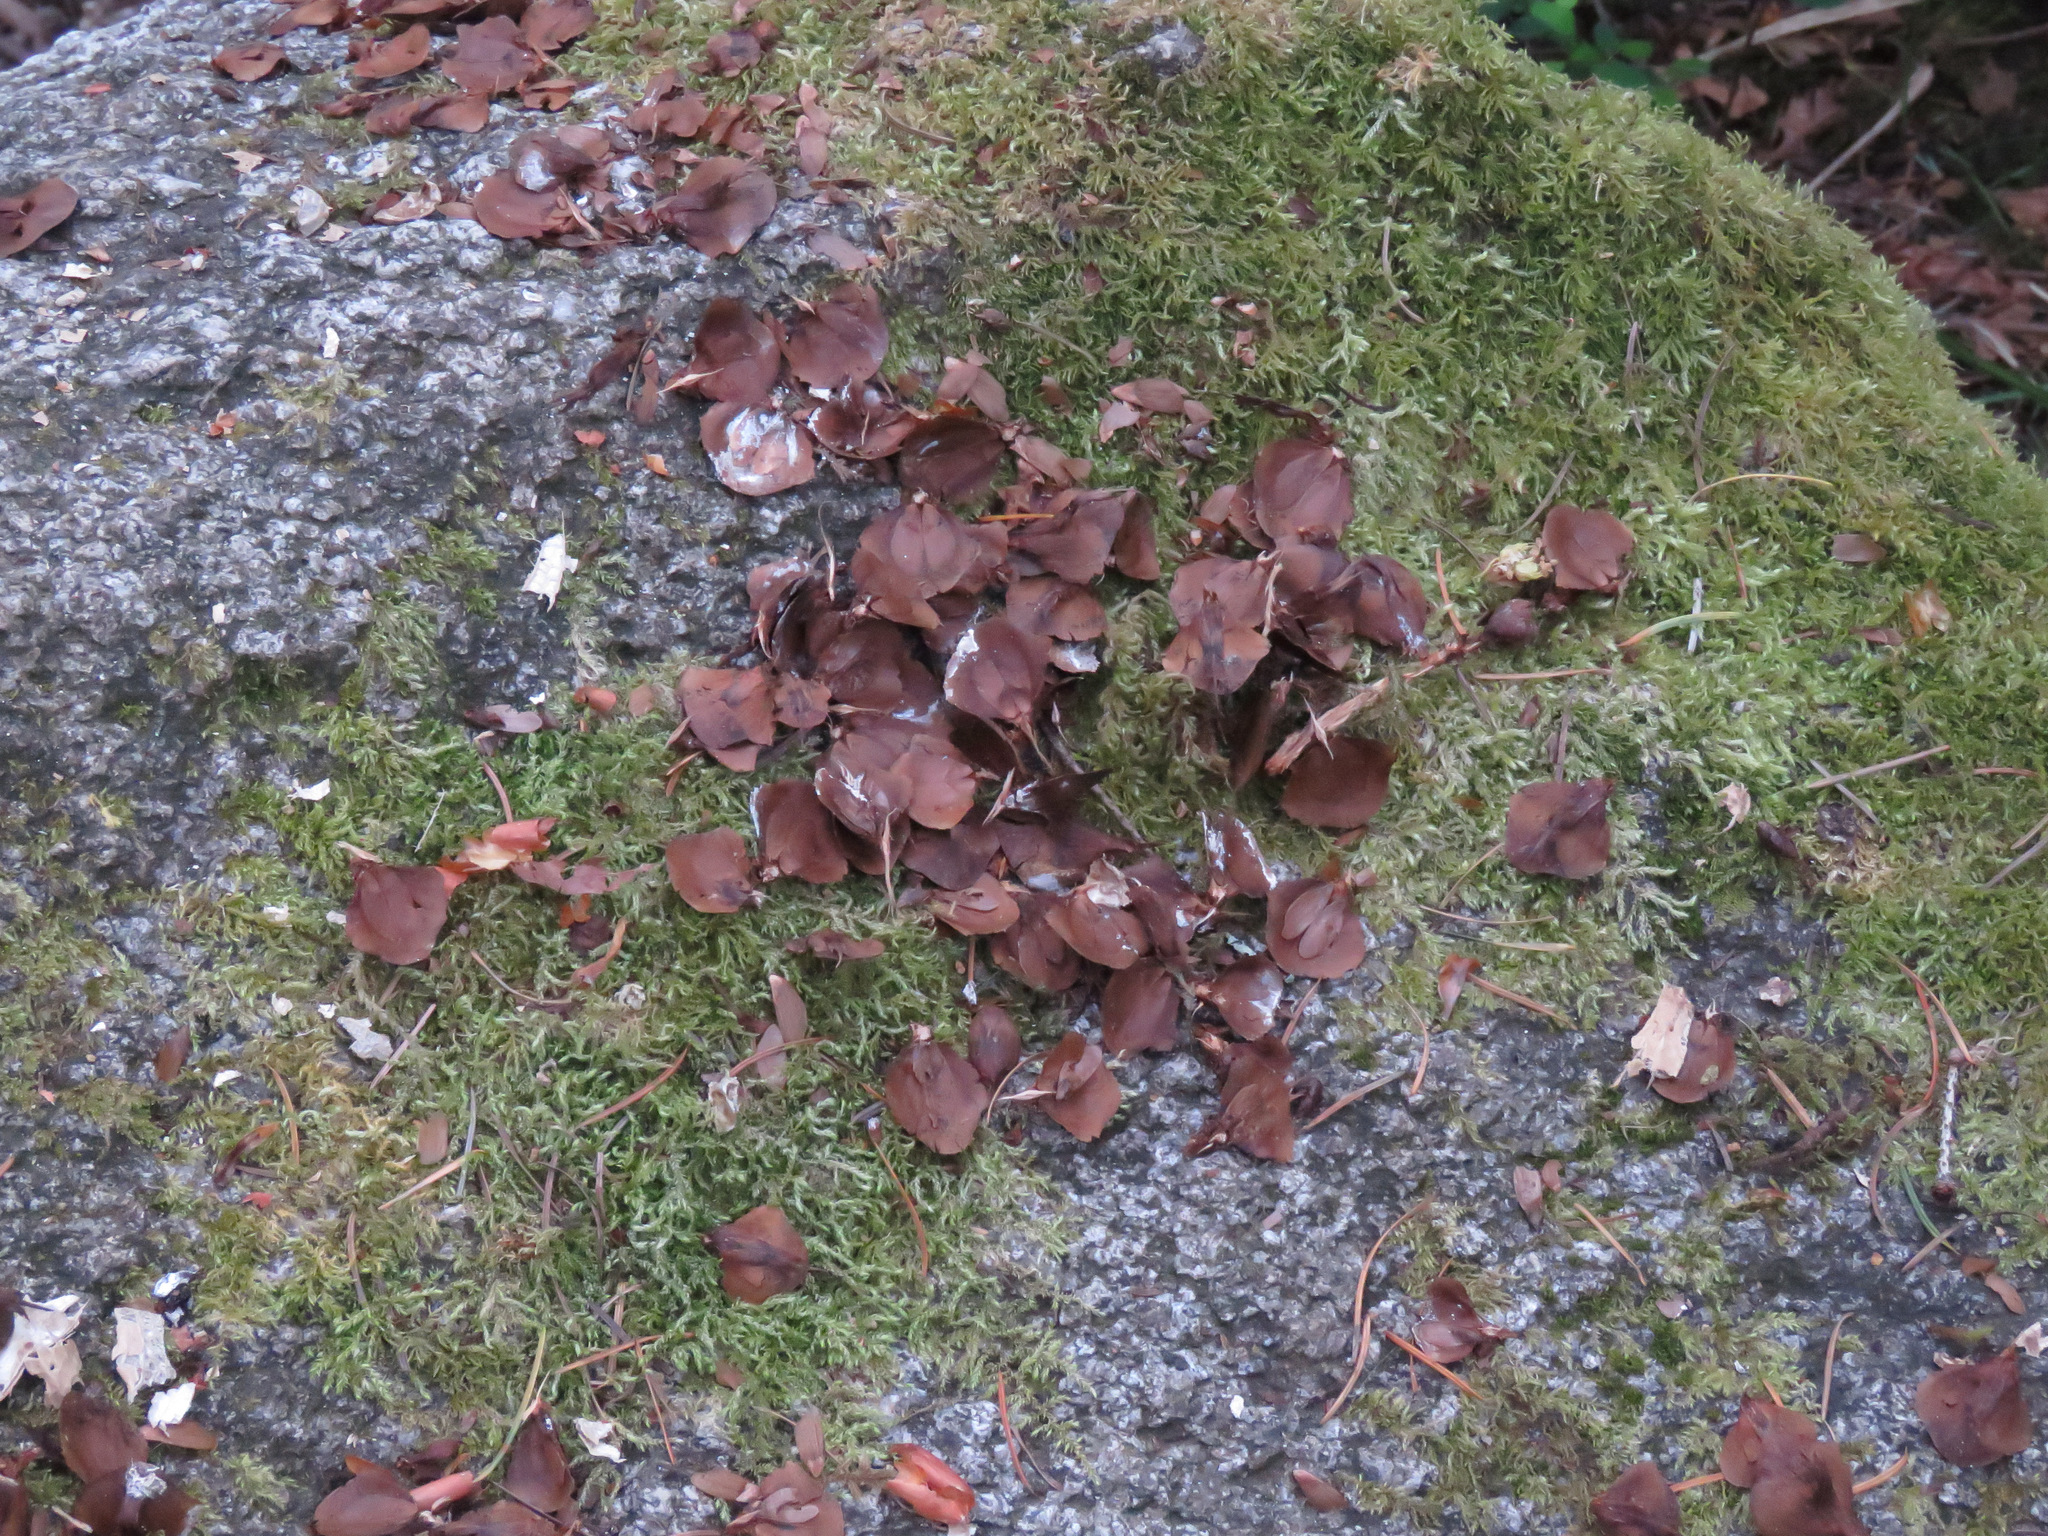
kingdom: Animalia
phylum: Chordata
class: Mammalia
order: Rodentia
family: Sciuridae
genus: Tamiasciurus
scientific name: Tamiasciurus hudsonicus
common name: Red squirrel
